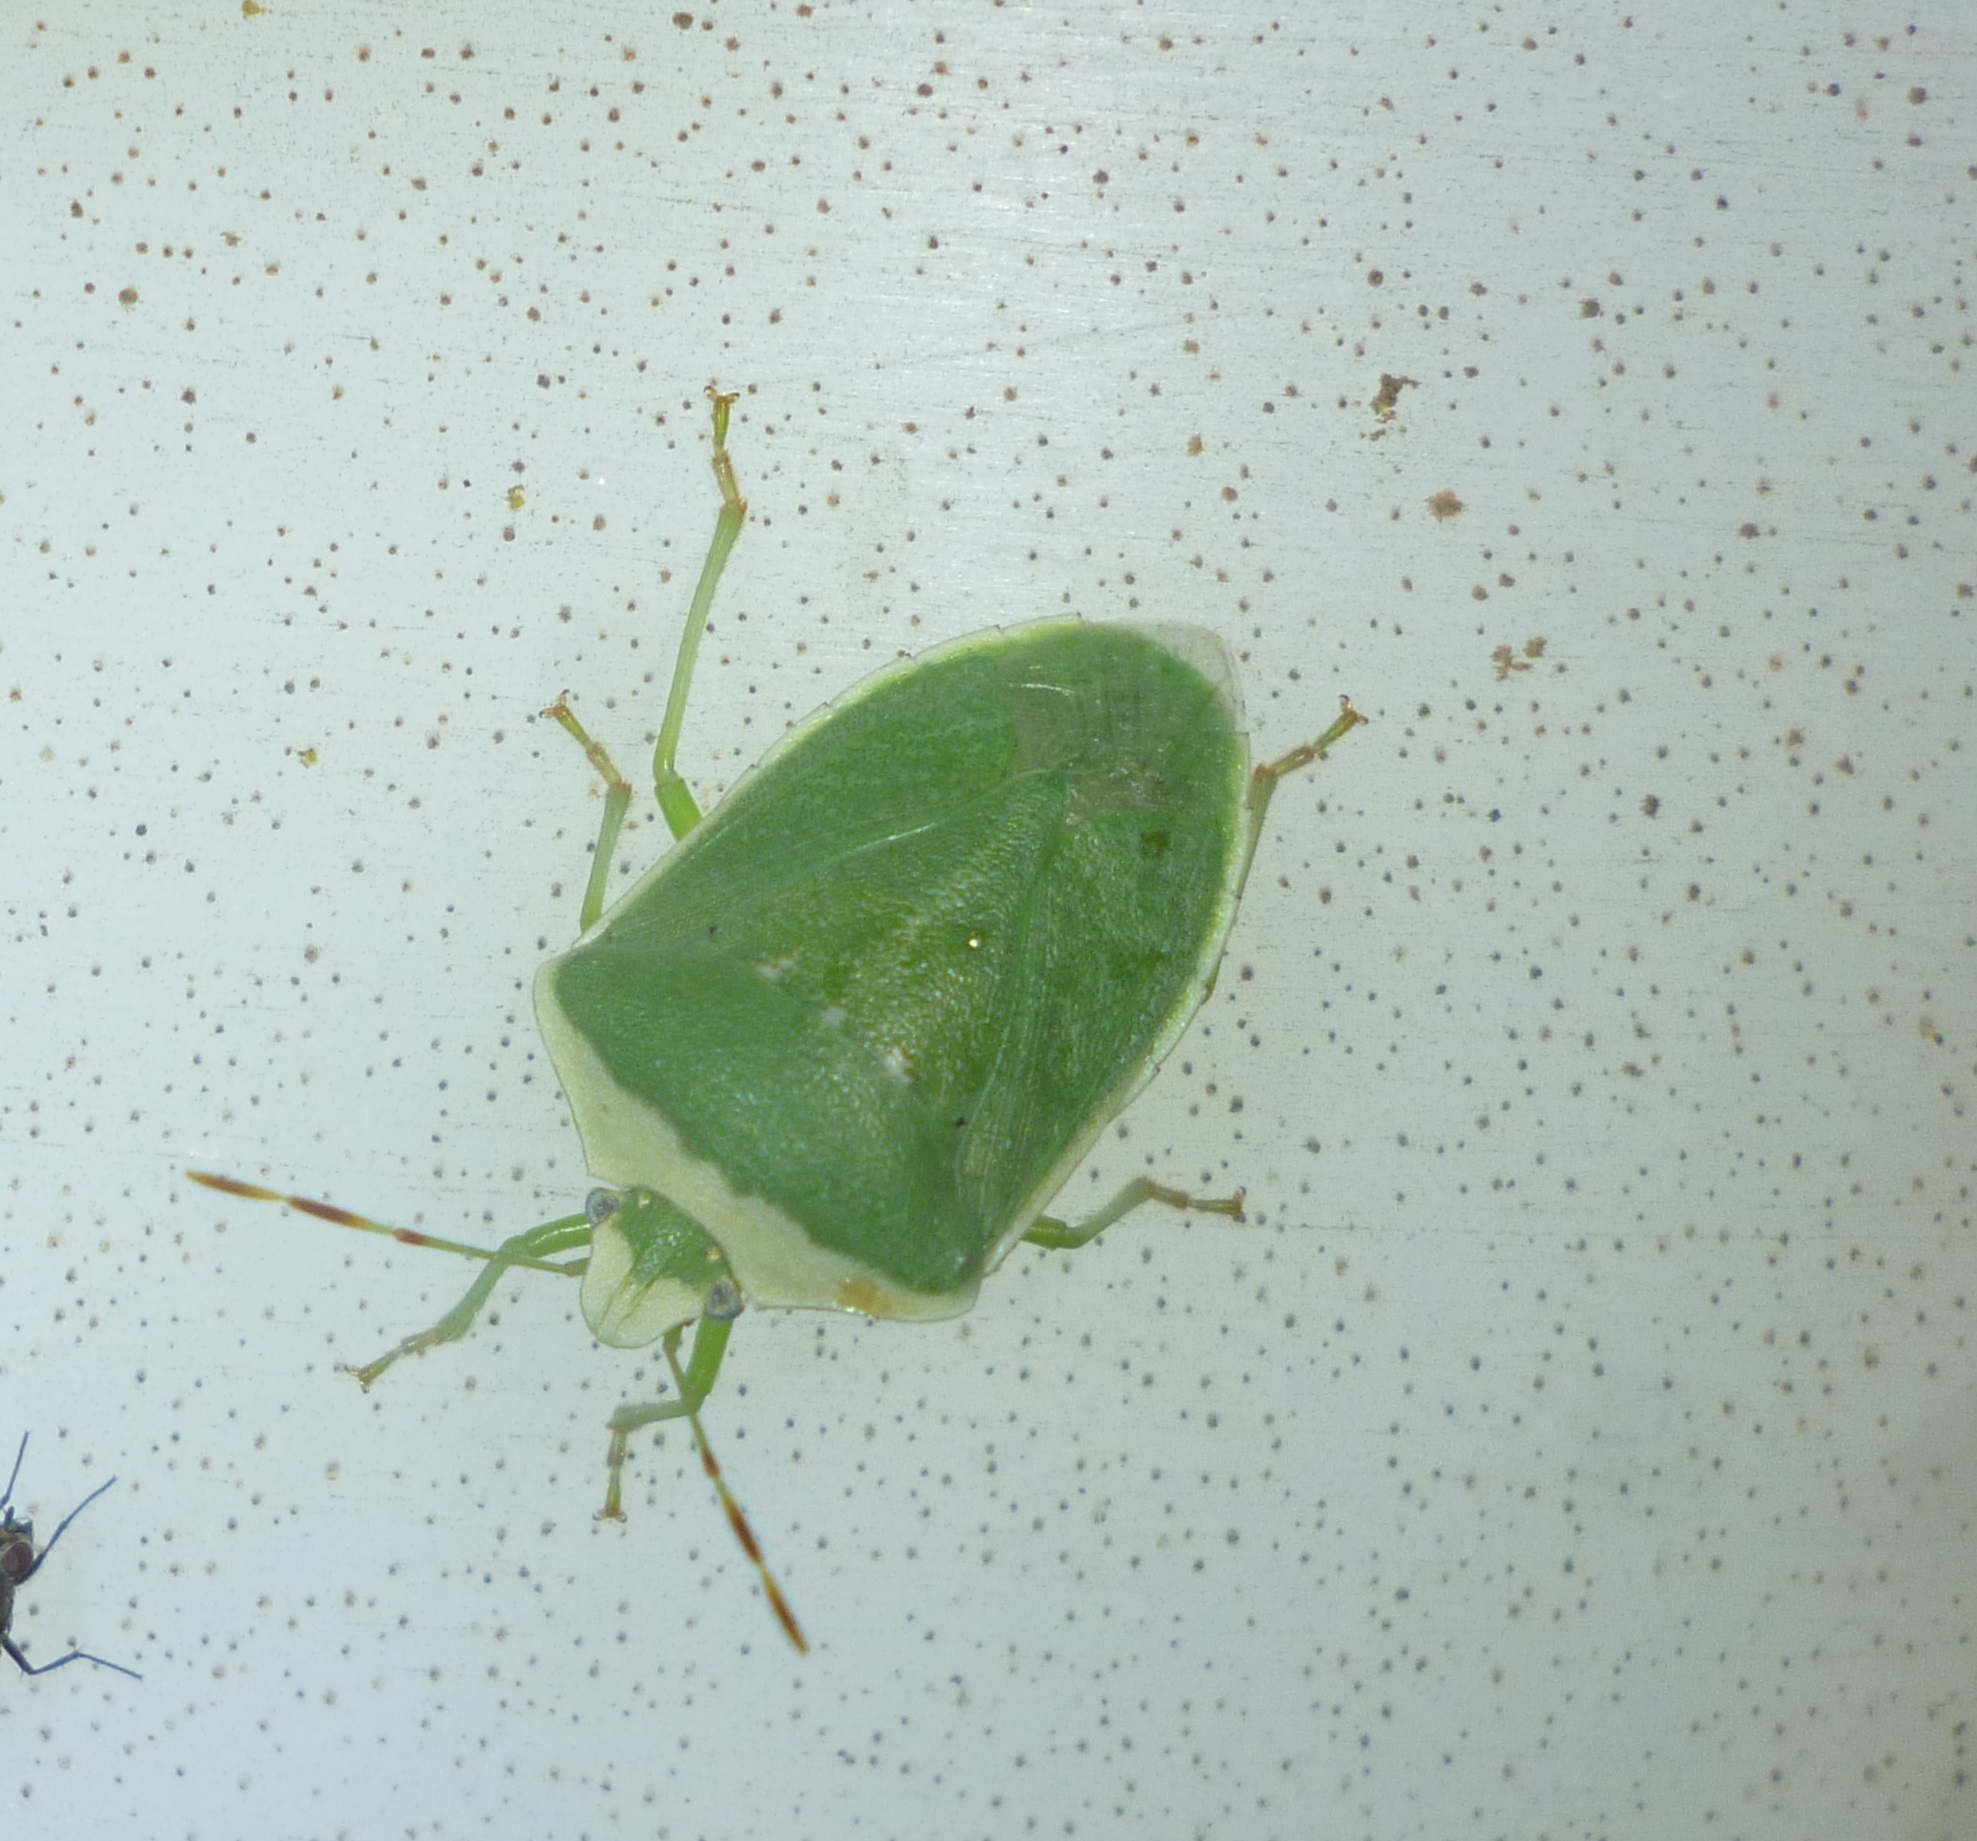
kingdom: Animalia
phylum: Arthropoda
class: Insecta
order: Hemiptera
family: Pentatomidae
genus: Nezara
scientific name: Nezara viridula
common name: Southern green stink bug
